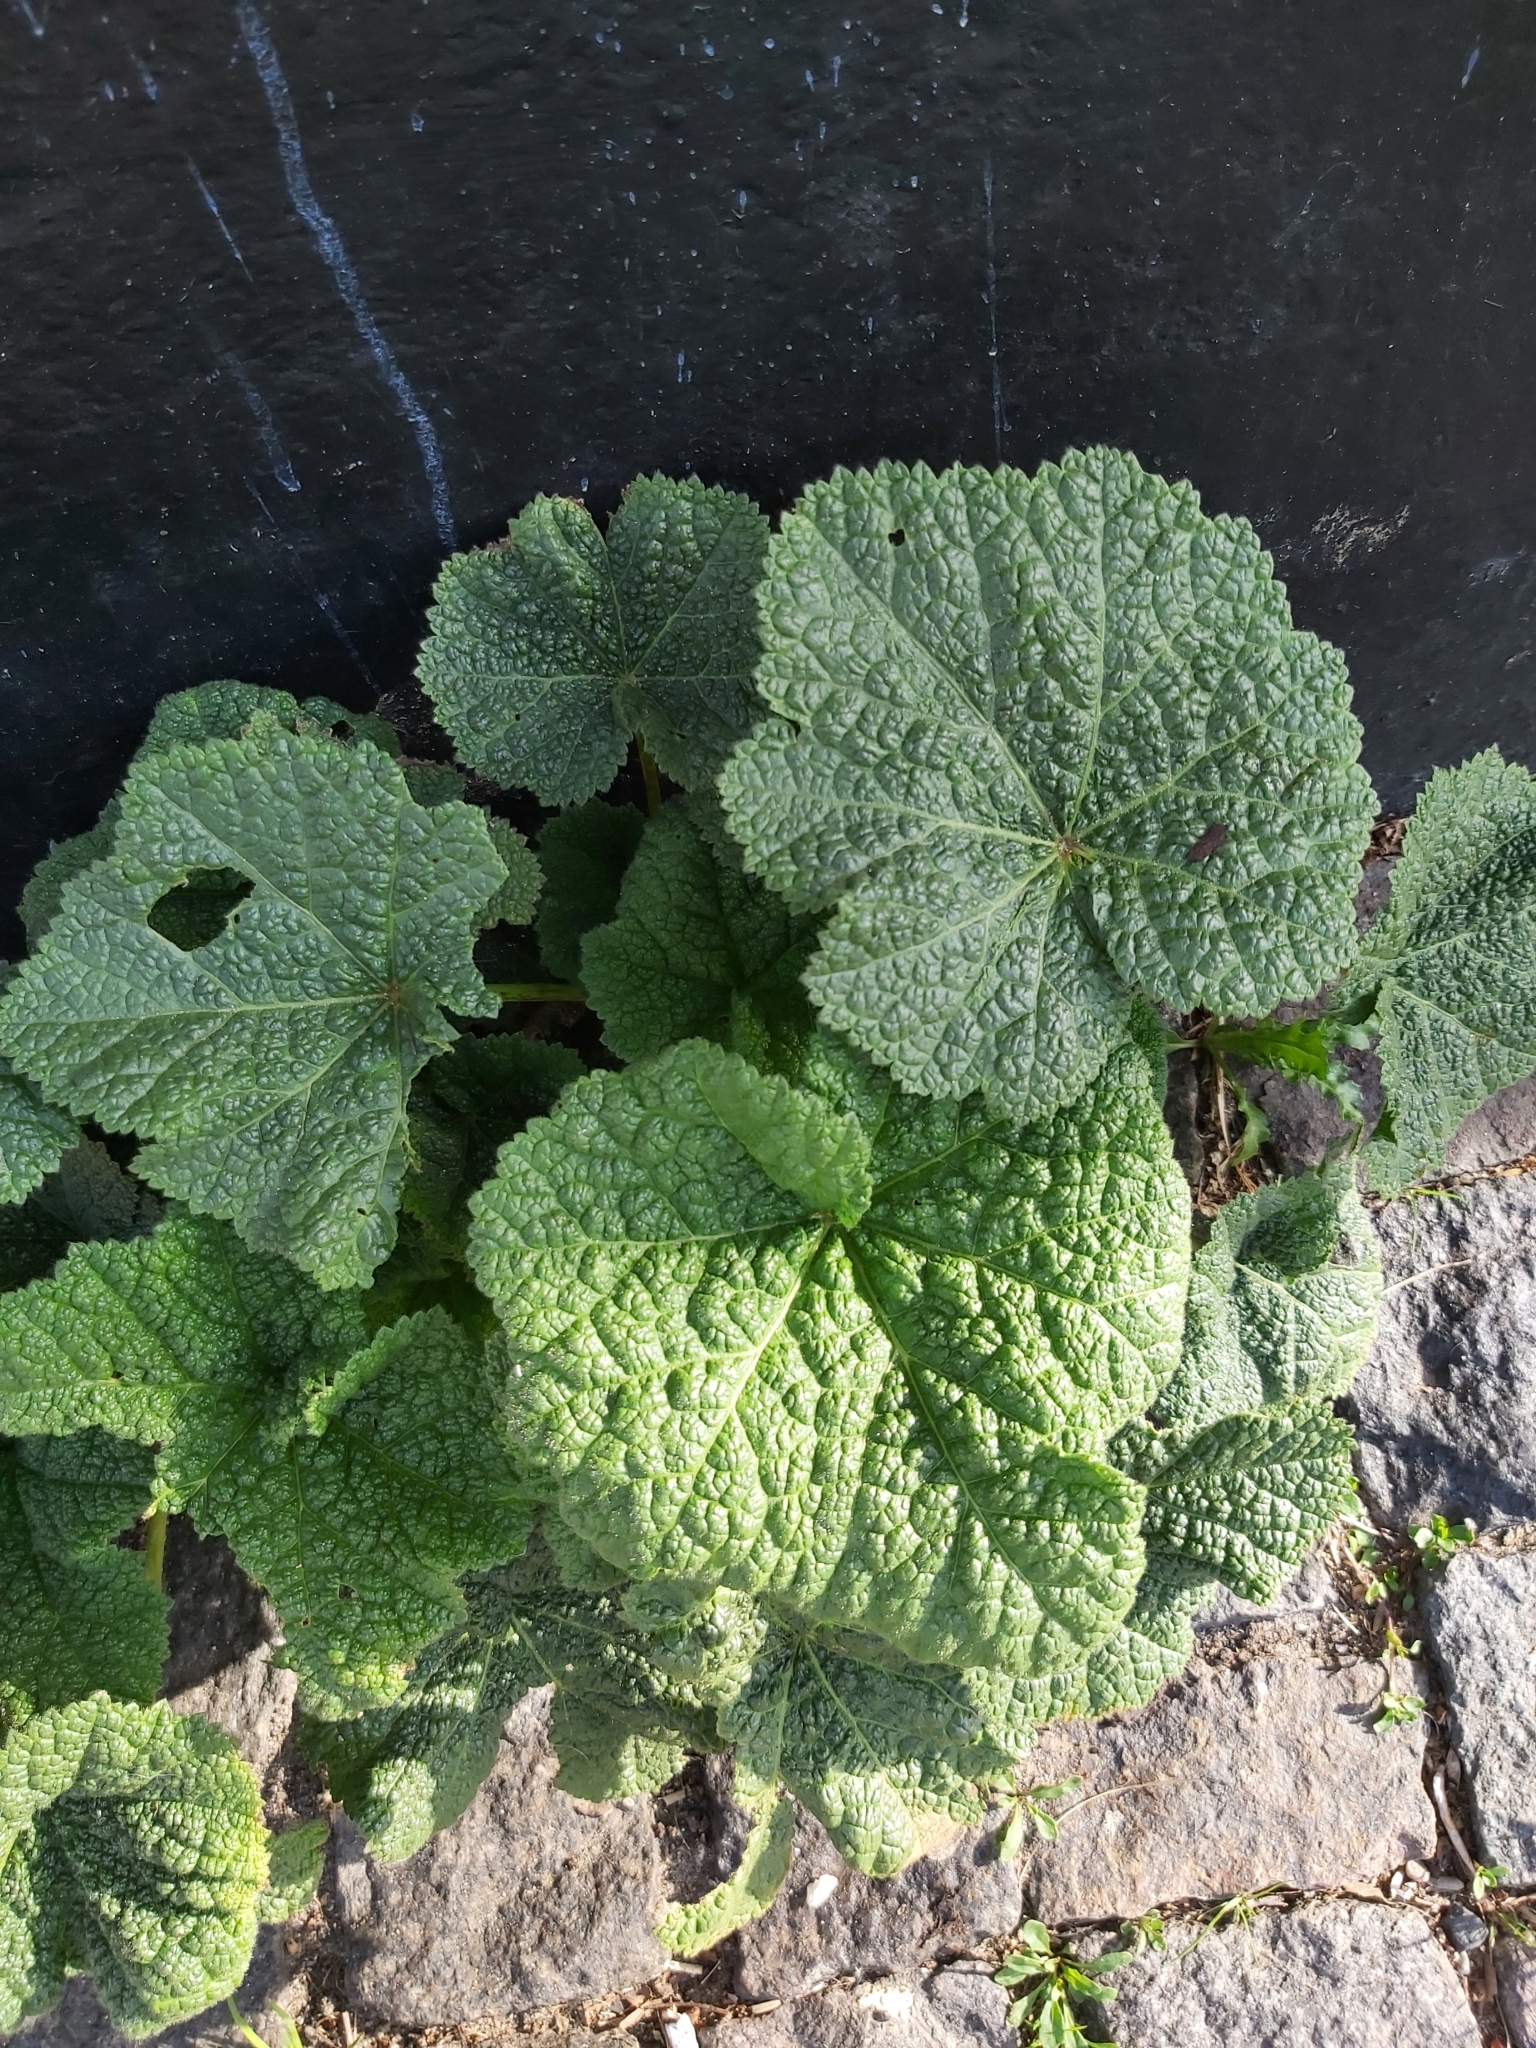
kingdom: Plantae
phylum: Tracheophyta
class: Magnoliopsida
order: Malvales
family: Malvaceae
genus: Alcea
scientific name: Alcea rosea
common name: Hollyhock
